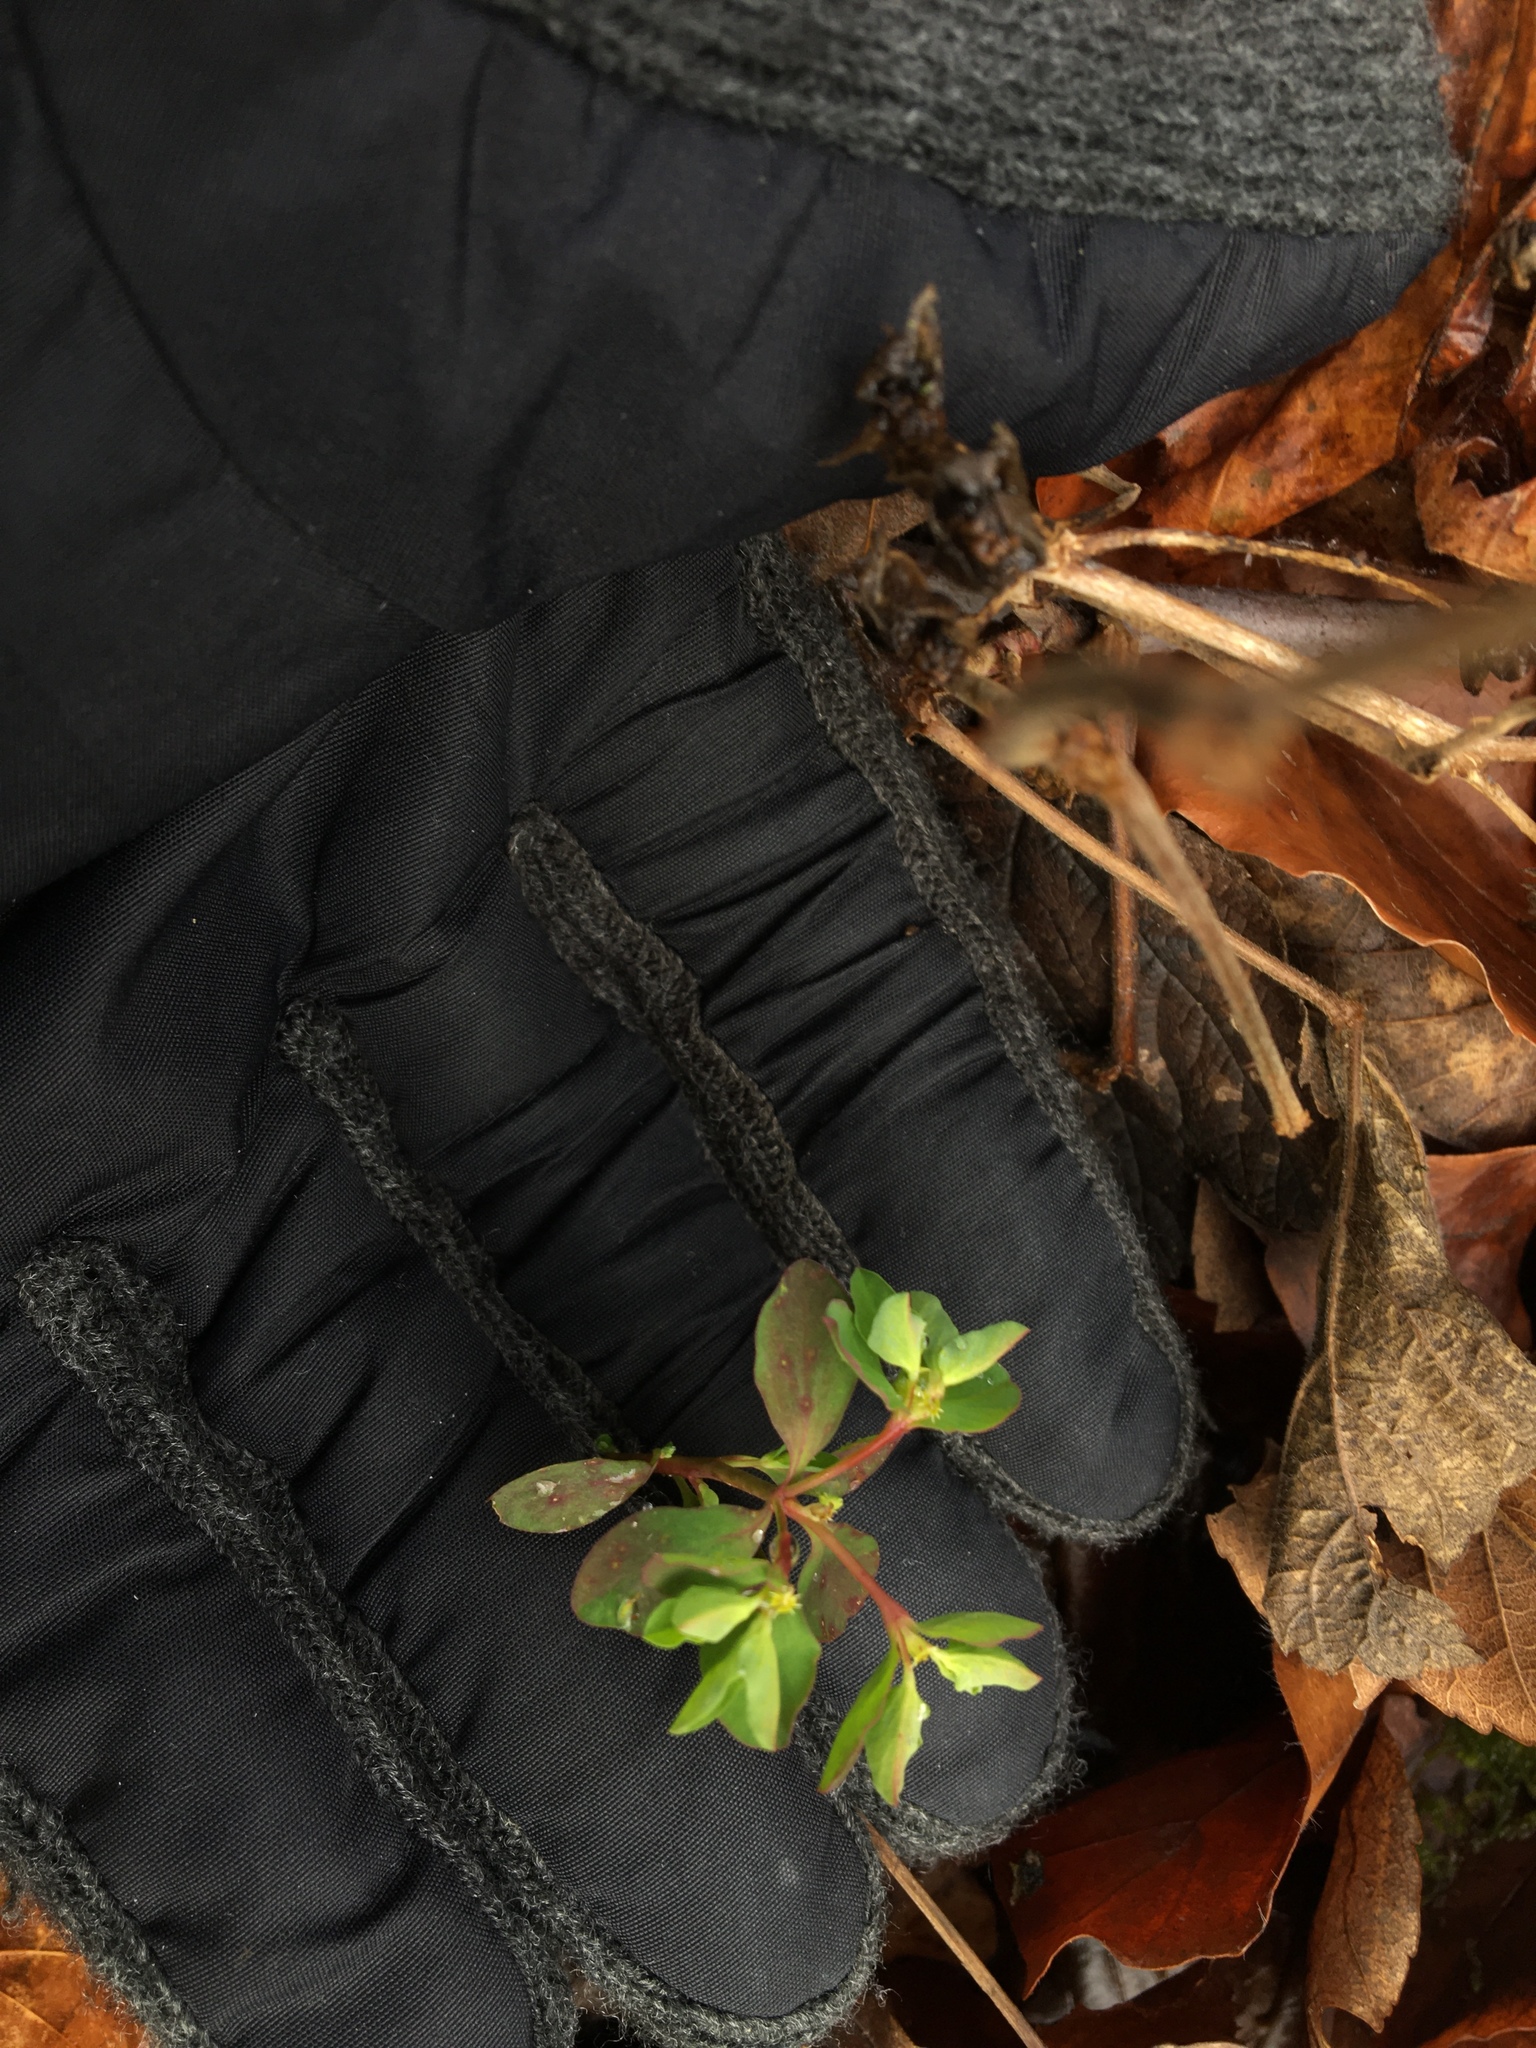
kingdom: Plantae
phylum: Tracheophyta
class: Magnoliopsida
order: Malpighiales
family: Euphorbiaceae
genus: Euphorbia
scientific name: Euphorbia peplus
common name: Petty spurge
